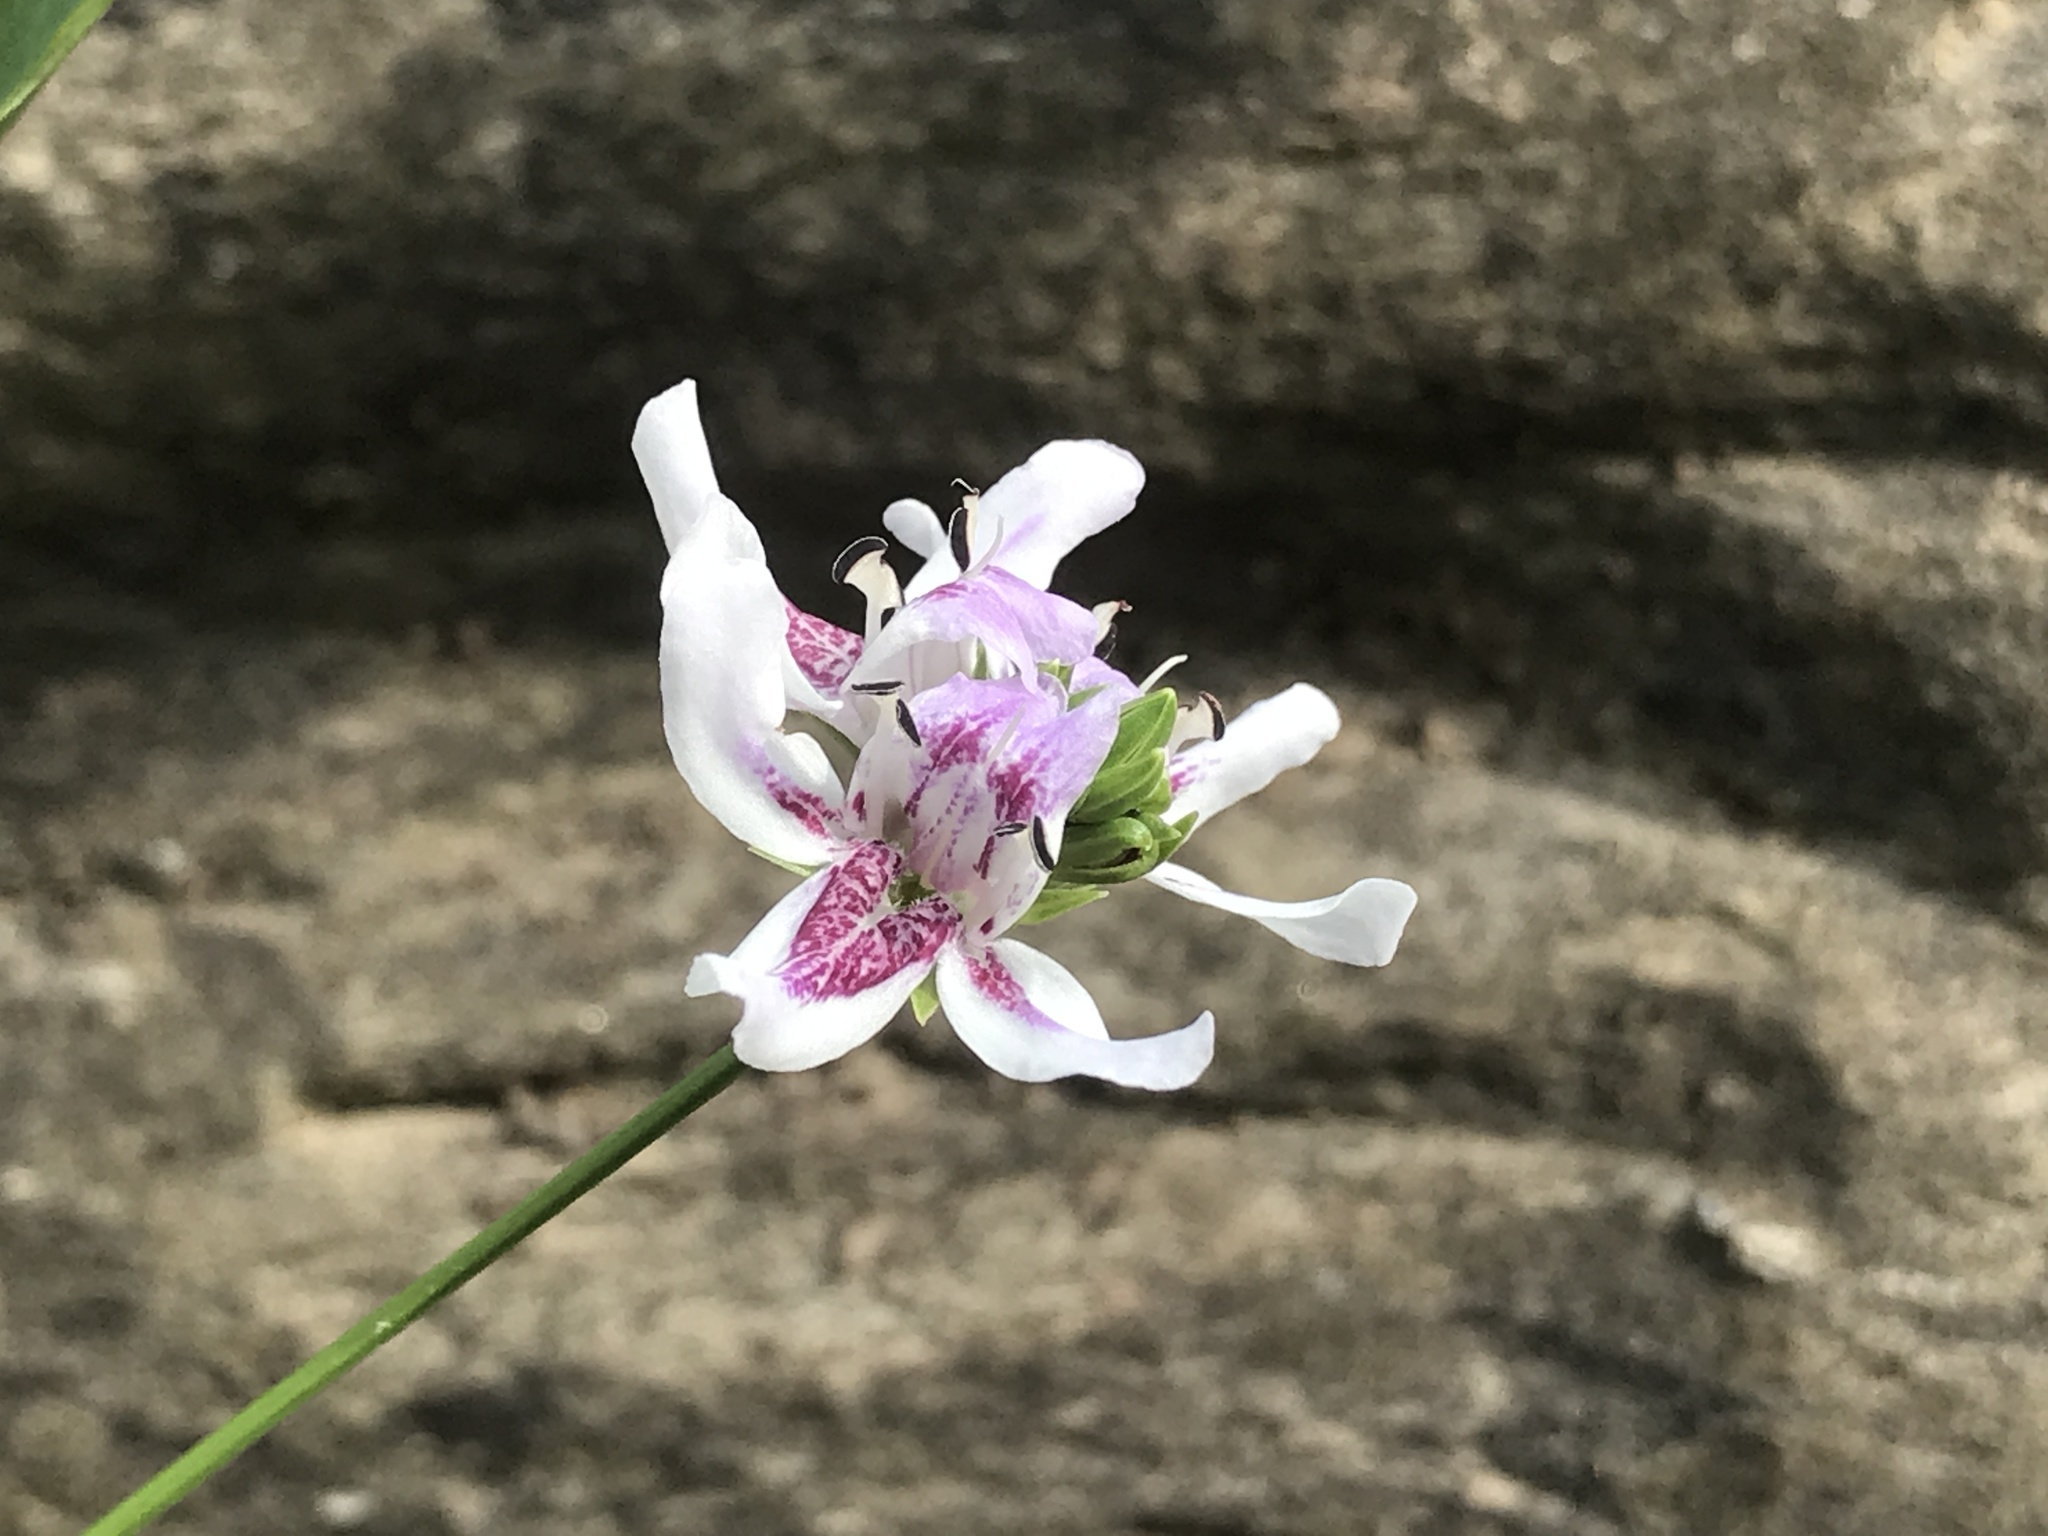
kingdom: Plantae
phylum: Tracheophyta
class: Magnoliopsida
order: Lamiales
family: Acanthaceae
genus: Dianthera
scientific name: Dianthera americana
